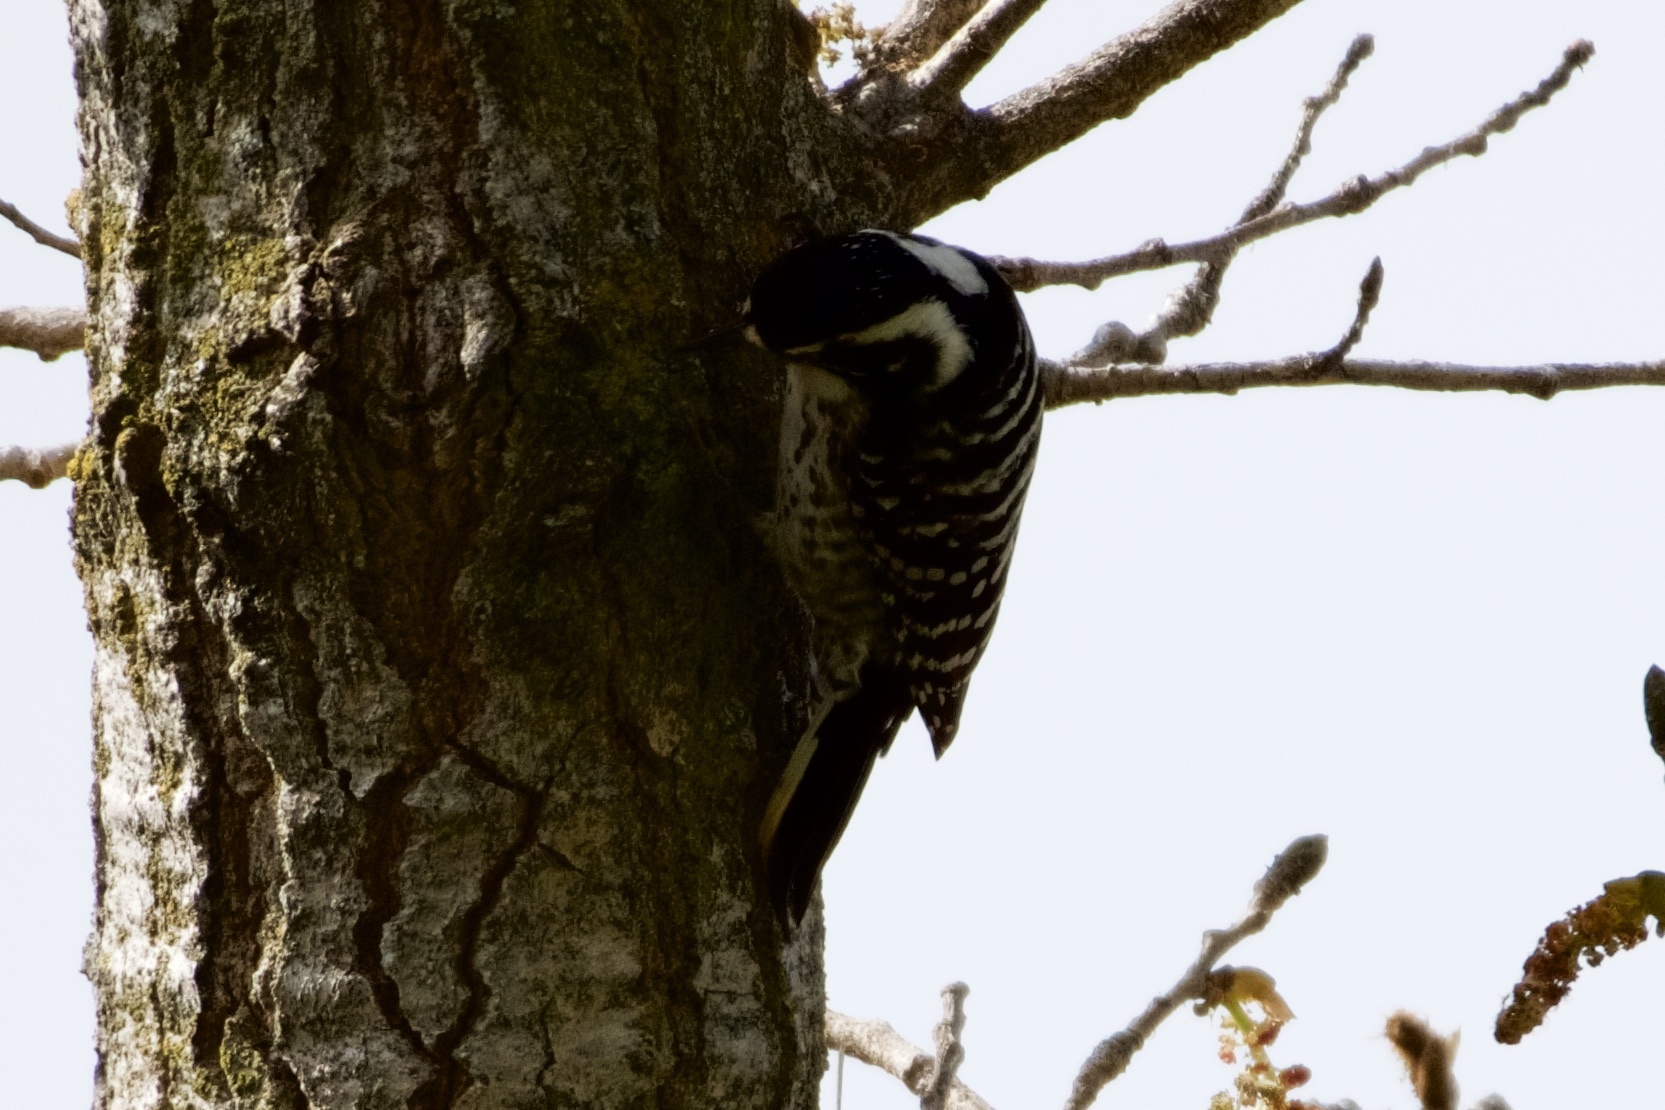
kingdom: Animalia
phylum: Chordata
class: Aves
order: Piciformes
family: Picidae
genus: Dryobates
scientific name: Dryobates nuttallii
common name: Nuttall's woodpecker
